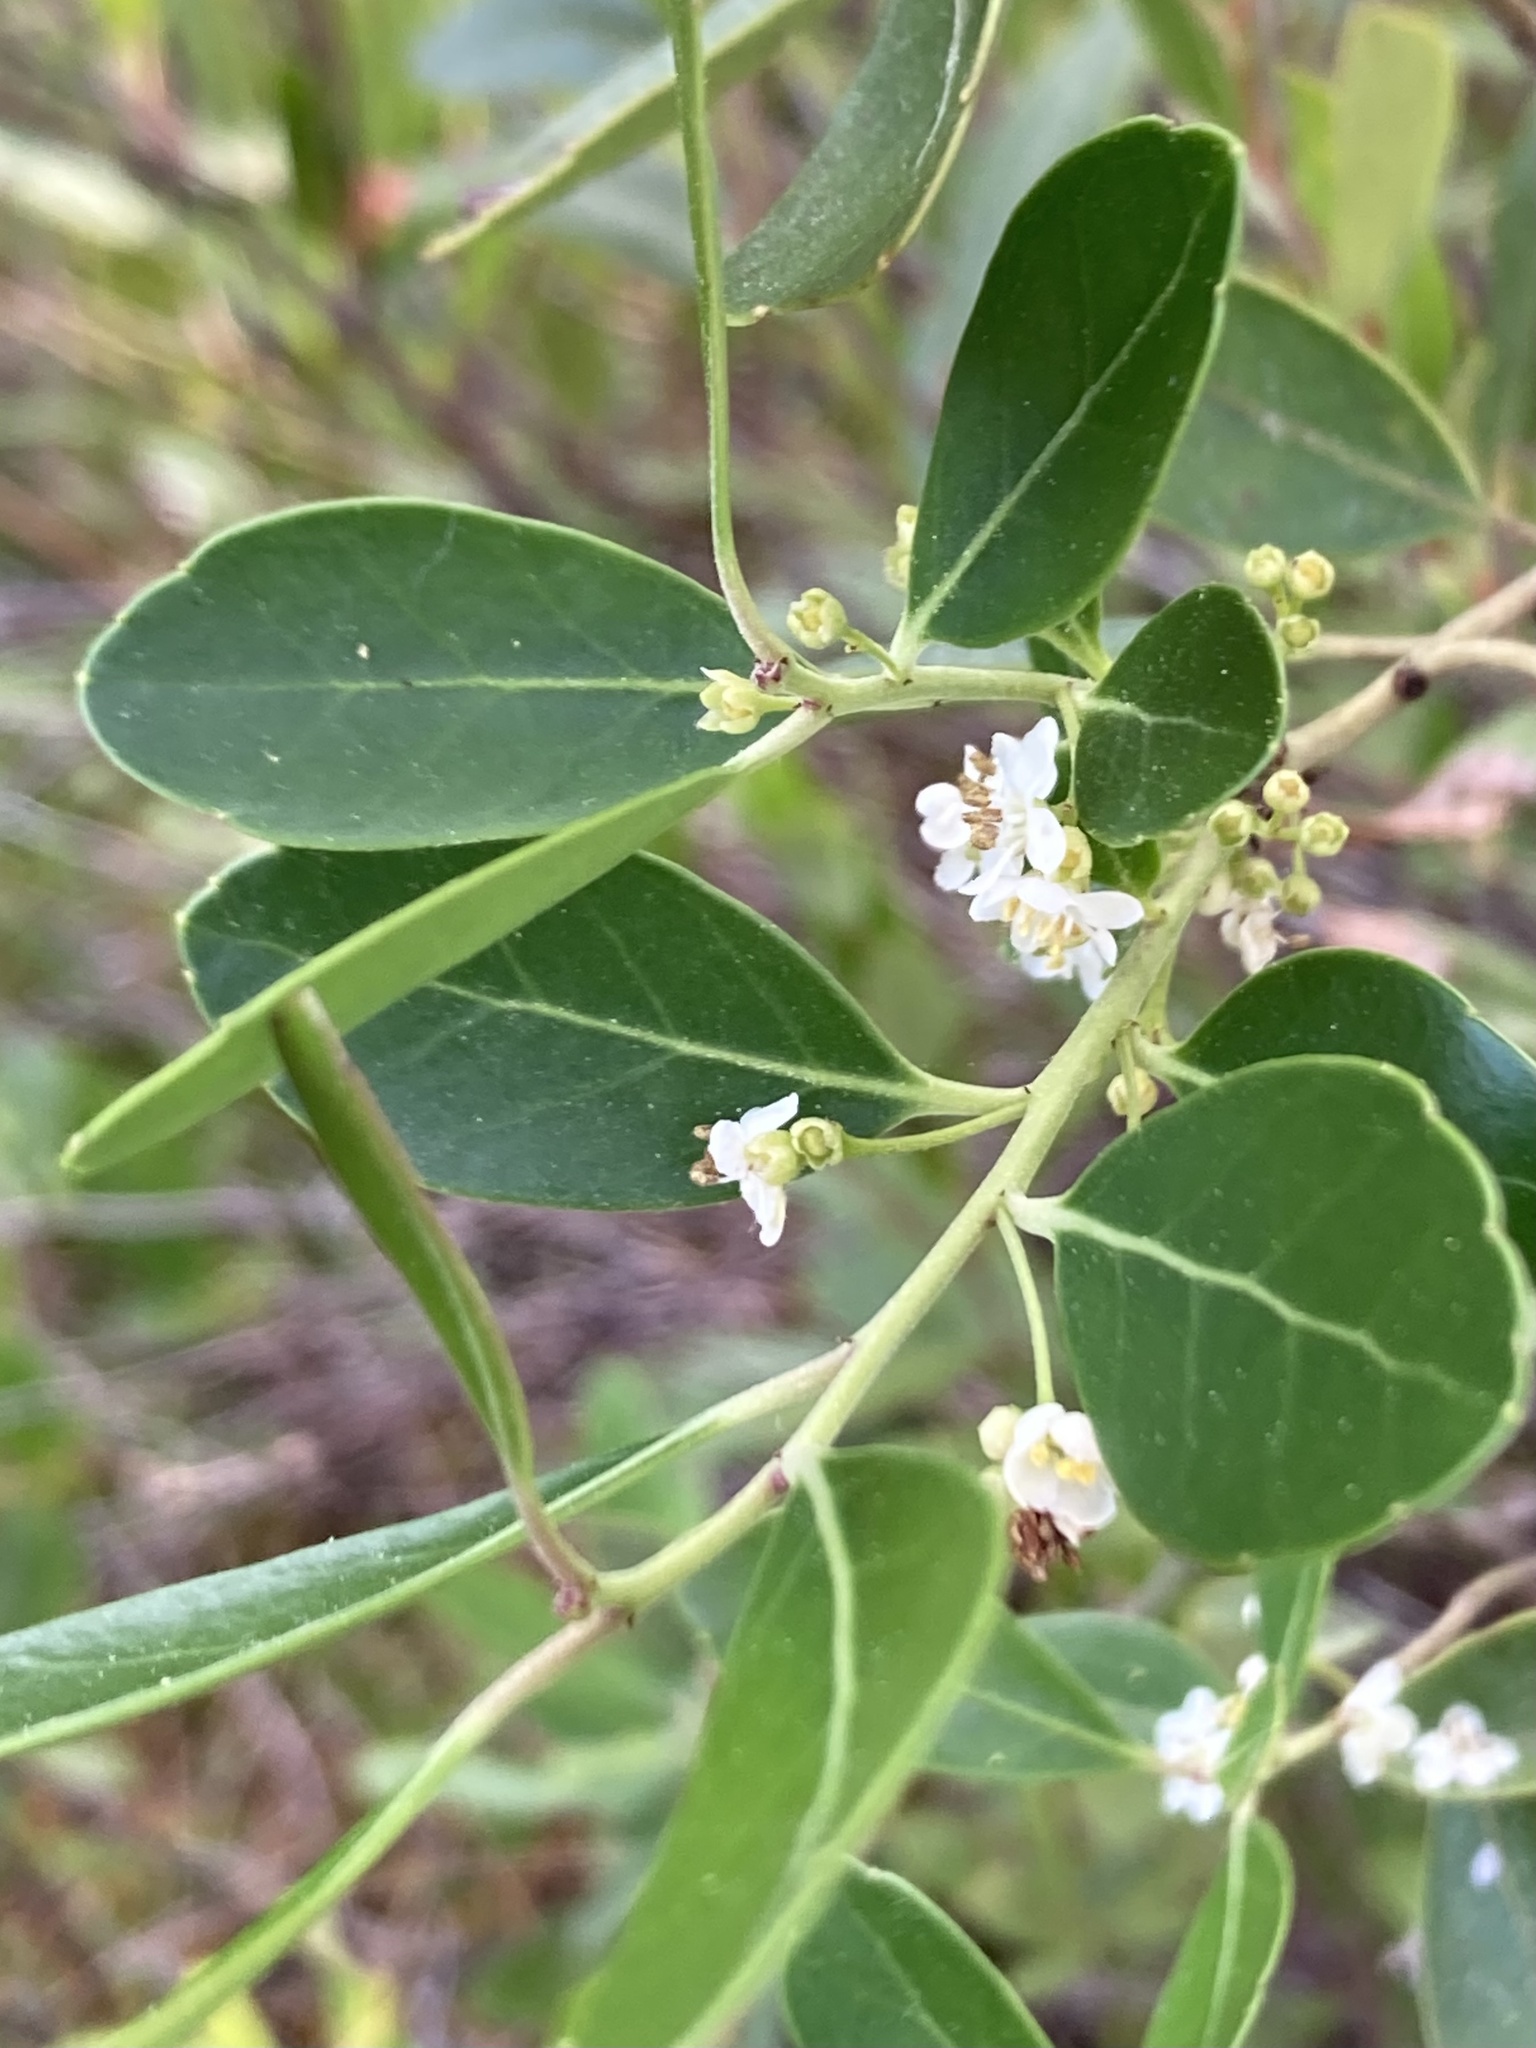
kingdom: Plantae
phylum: Tracheophyta
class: Magnoliopsida
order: Aquifoliales
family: Aquifoliaceae
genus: Ilex
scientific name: Ilex glabra
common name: Bitter gallberry
